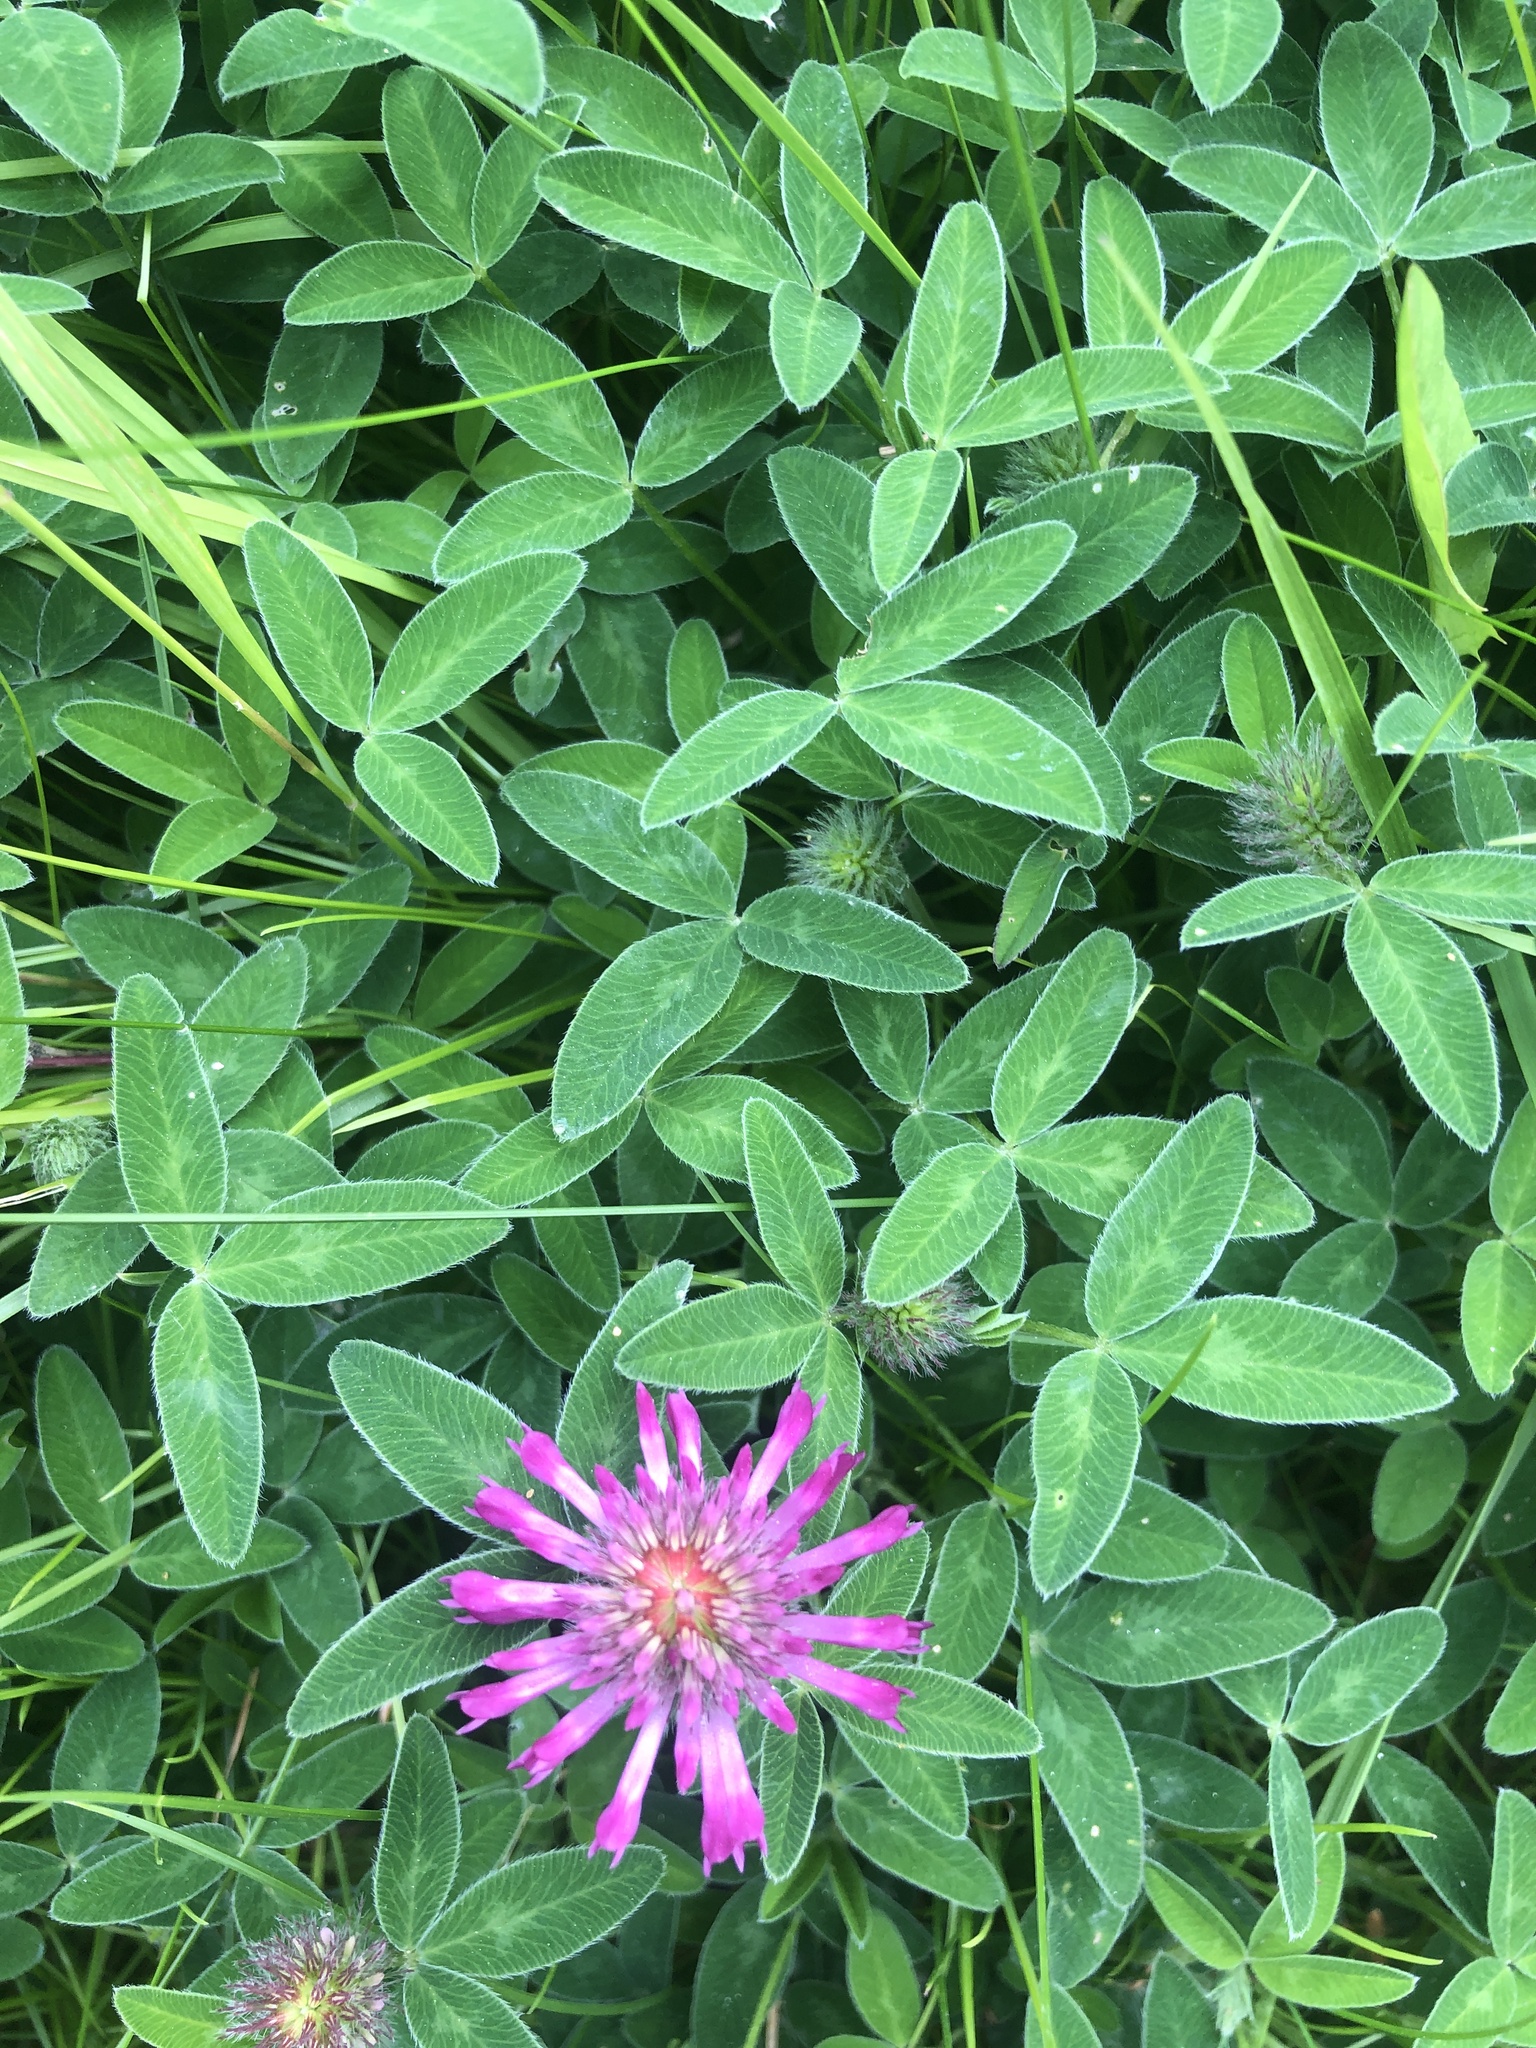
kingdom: Plantae
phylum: Tracheophyta
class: Magnoliopsida
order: Fabales
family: Fabaceae
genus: Trifolium
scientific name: Trifolium medium
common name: Zigzag clover
